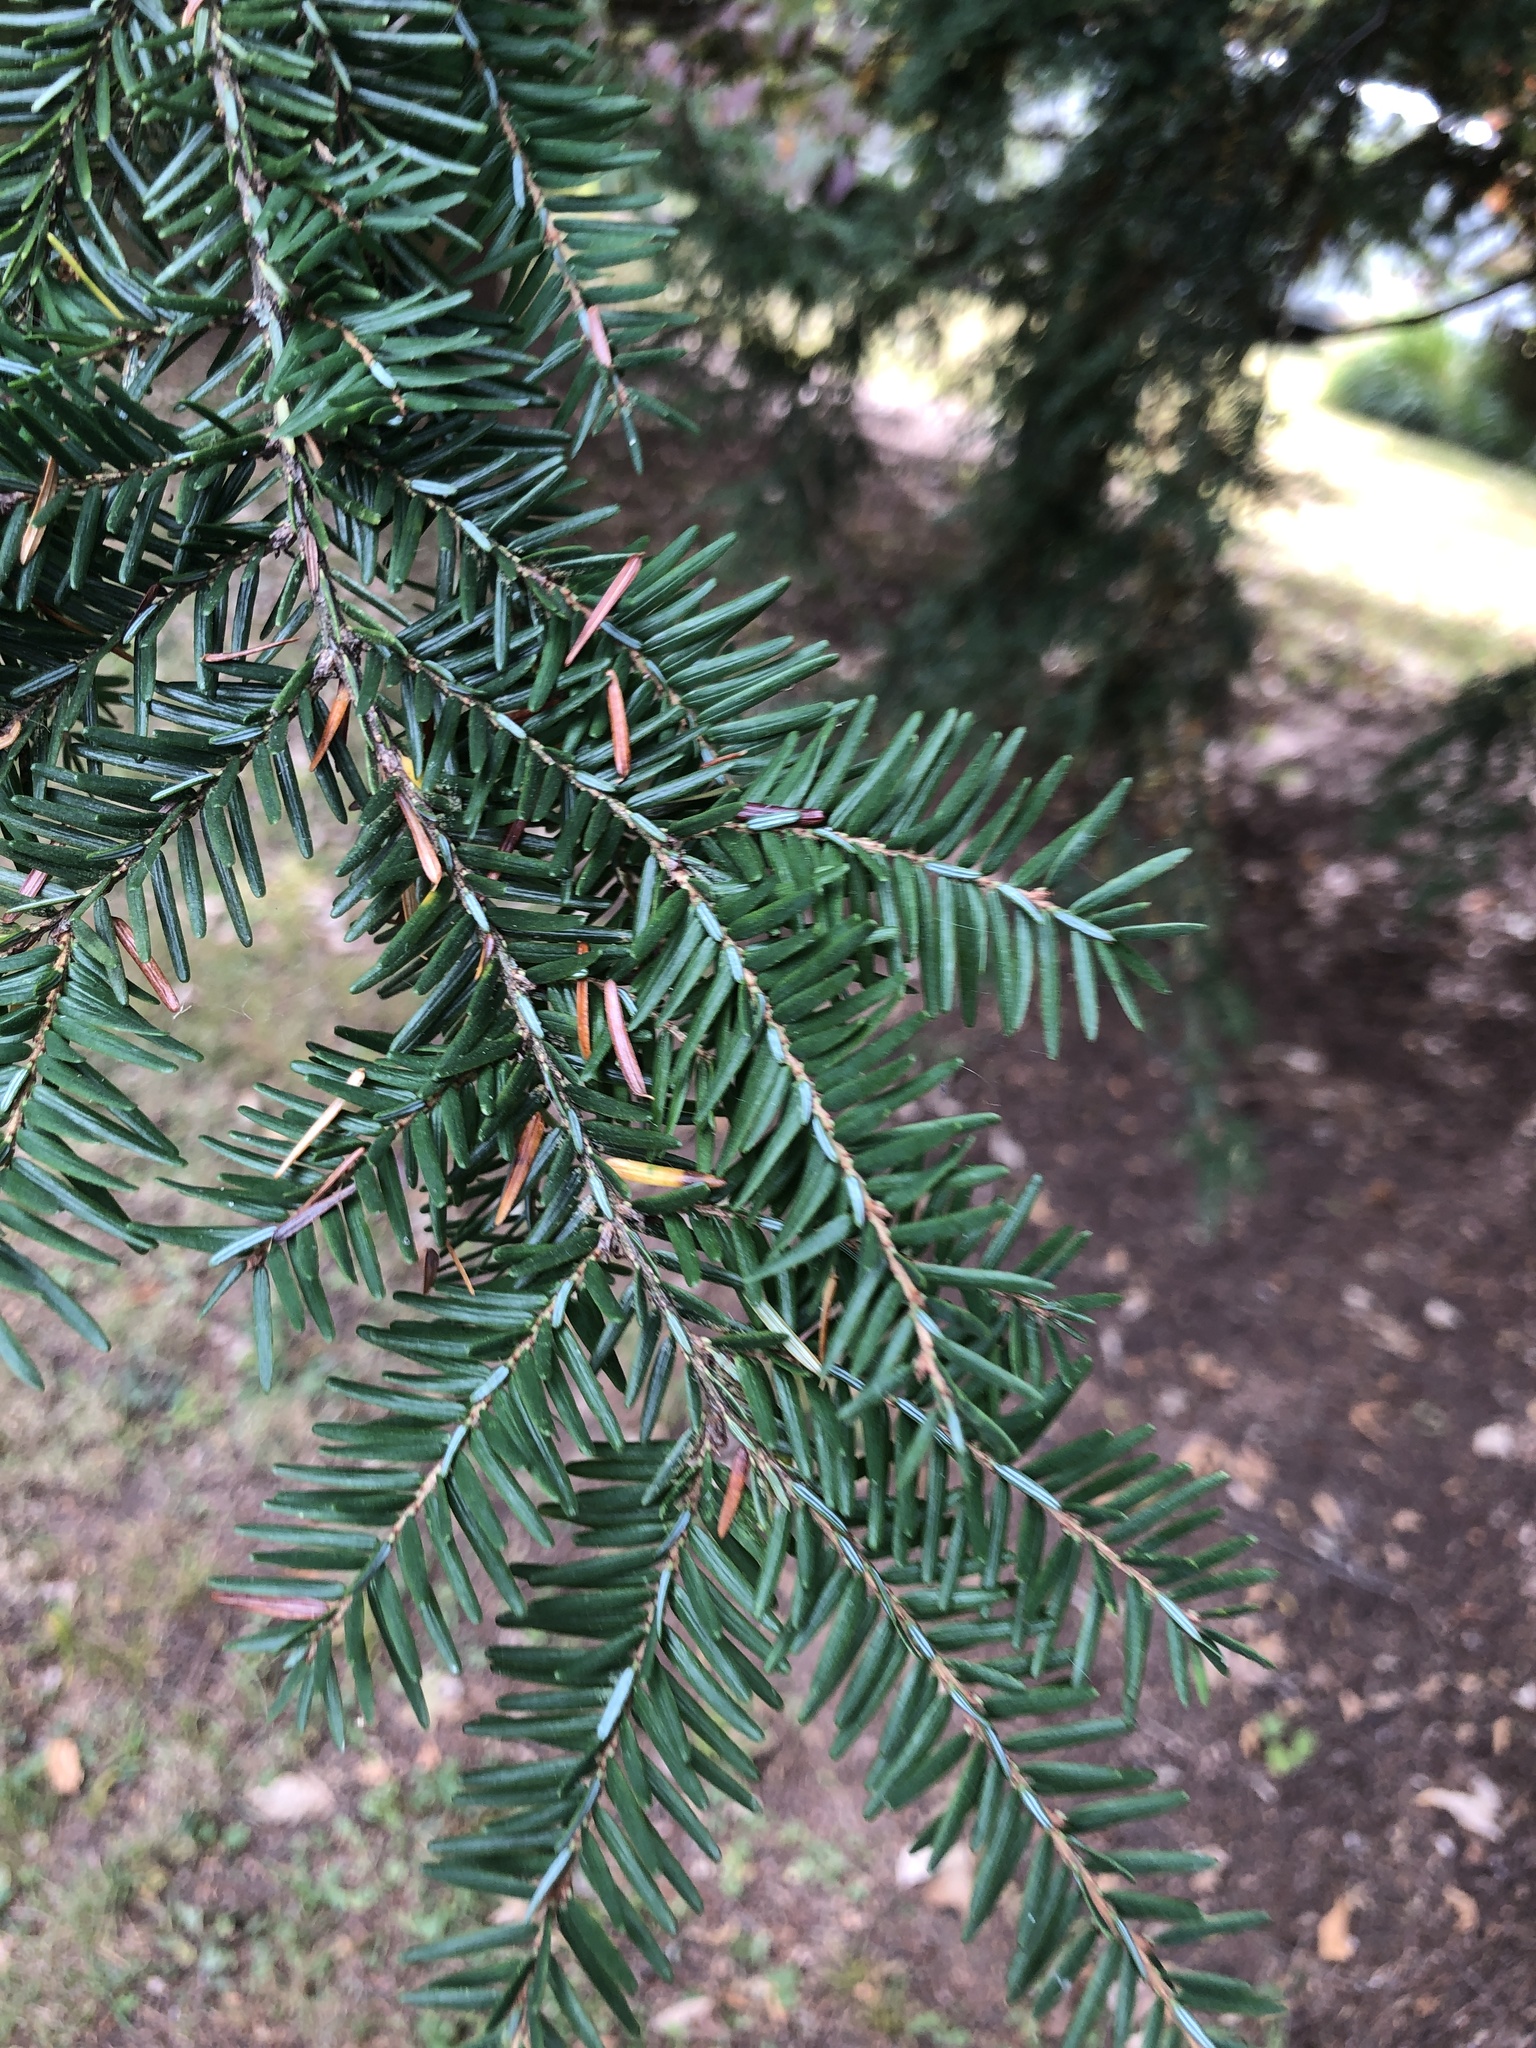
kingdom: Plantae
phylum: Tracheophyta
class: Pinopsida
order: Pinales
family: Pinaceae
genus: Tsuga
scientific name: Tsuga canadensis
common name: Eastern hemlock
